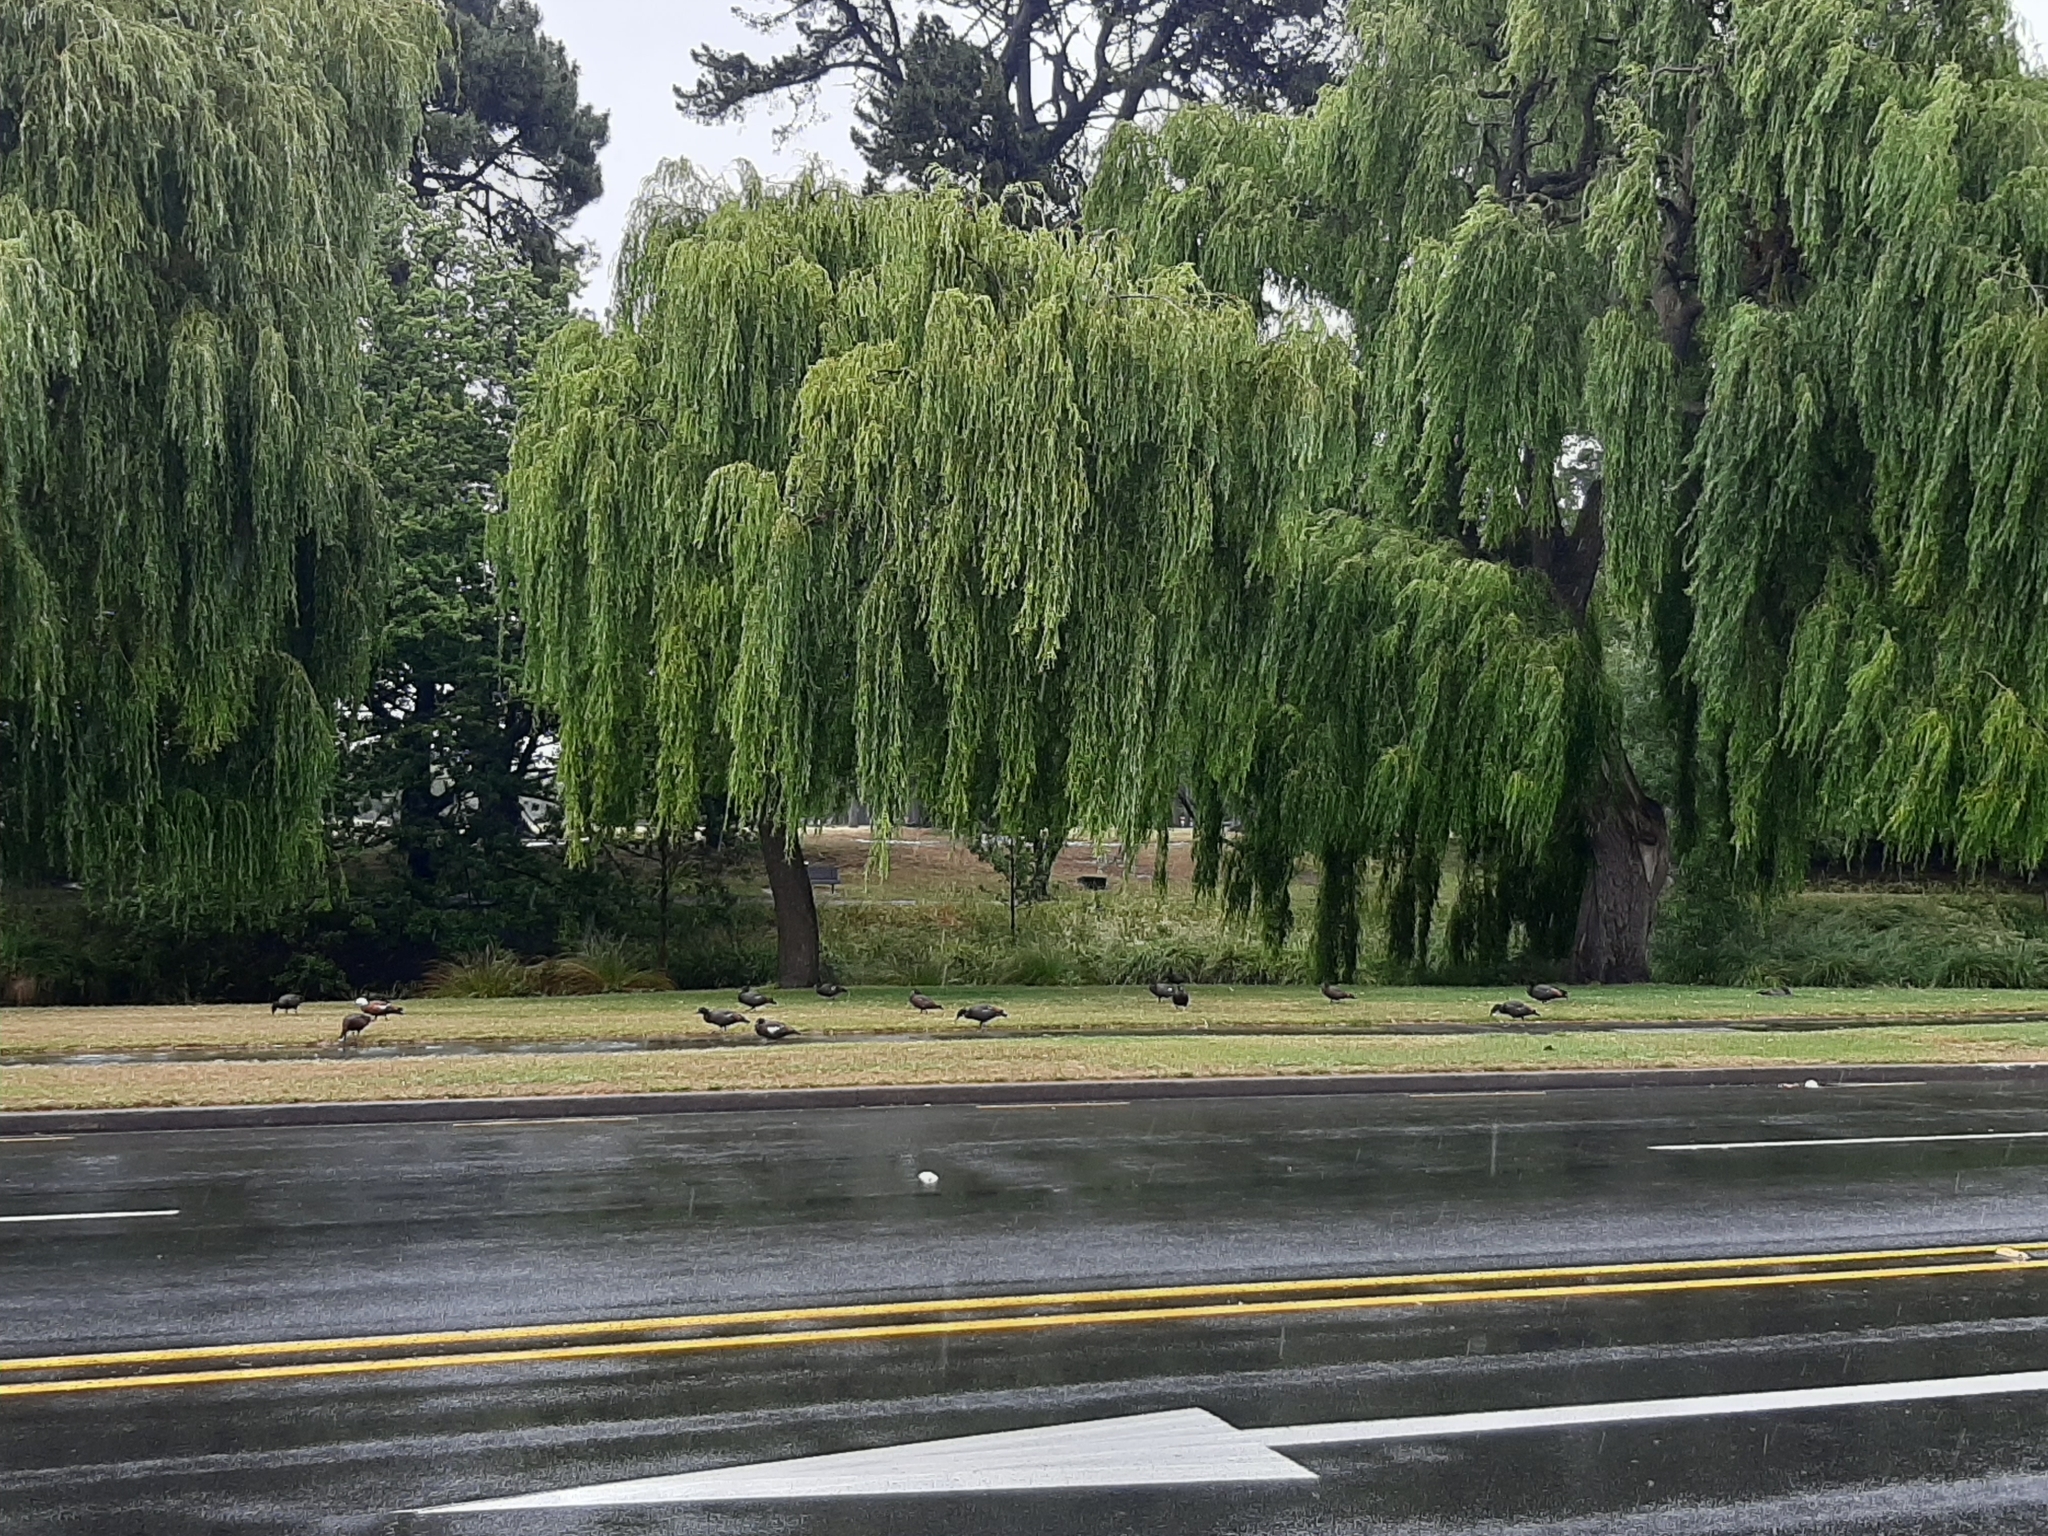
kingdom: Animalia
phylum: Chordata
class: Aves
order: Anseriformes
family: Anatidae
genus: Tadorna
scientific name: Tadorna variegata
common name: Paradise shelduck
